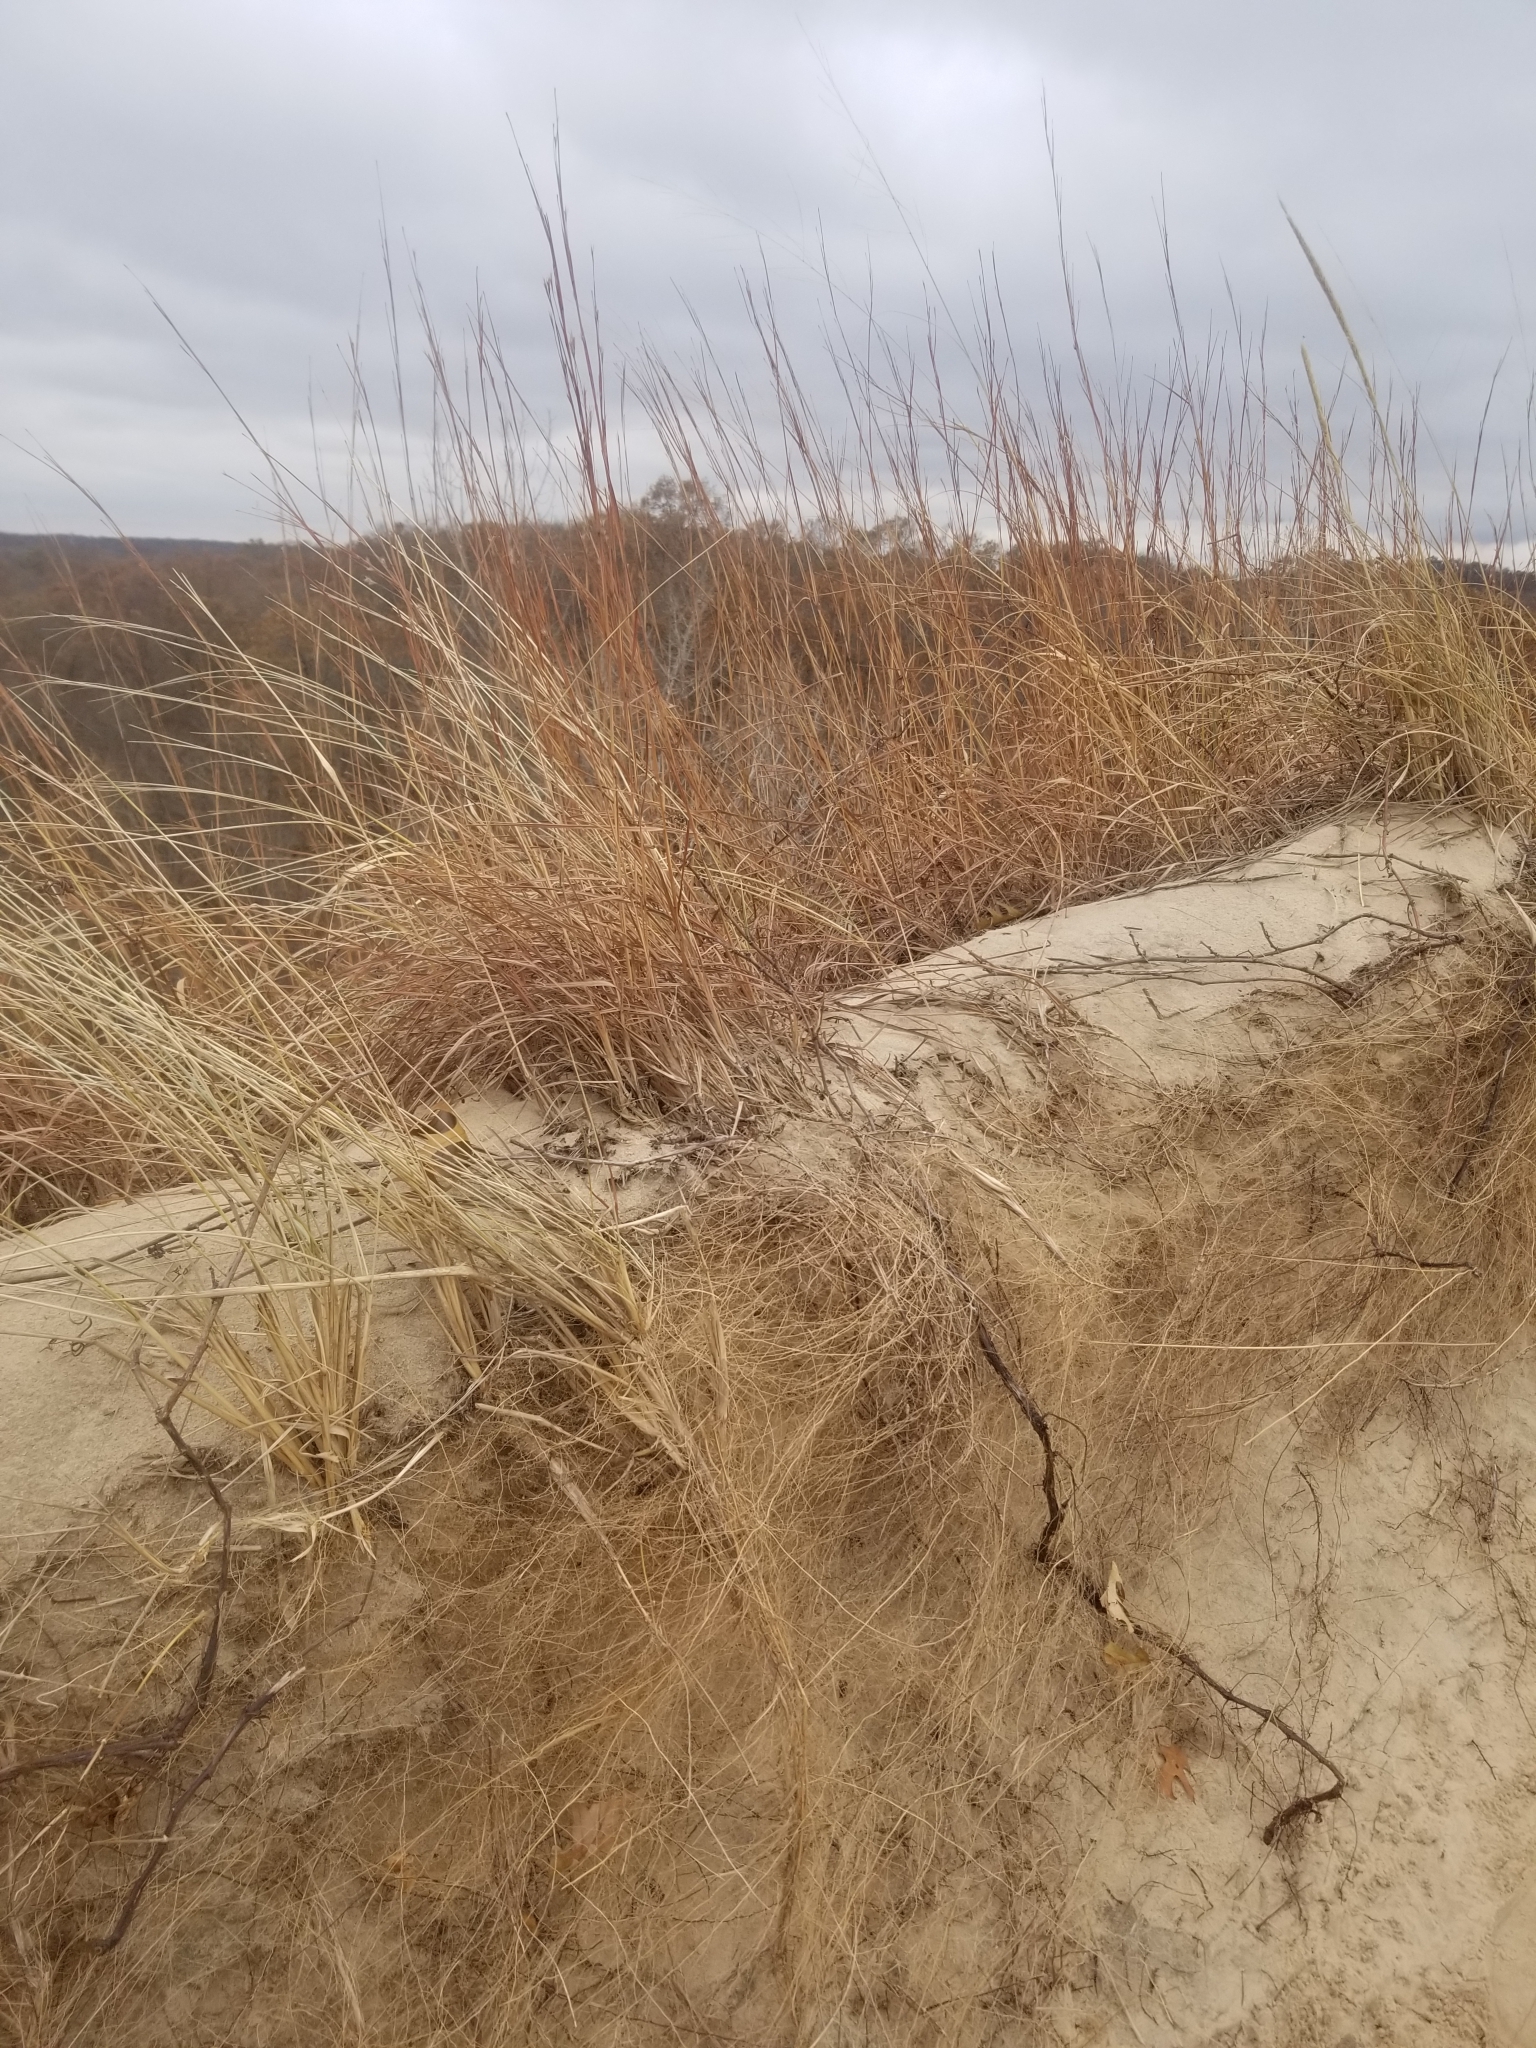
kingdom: Plantae
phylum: Tracheophyta
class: Liliopsida
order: Poales
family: Poaceae
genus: Schizachyrium
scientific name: Schizachyrium scoparium
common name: Little bluestem
